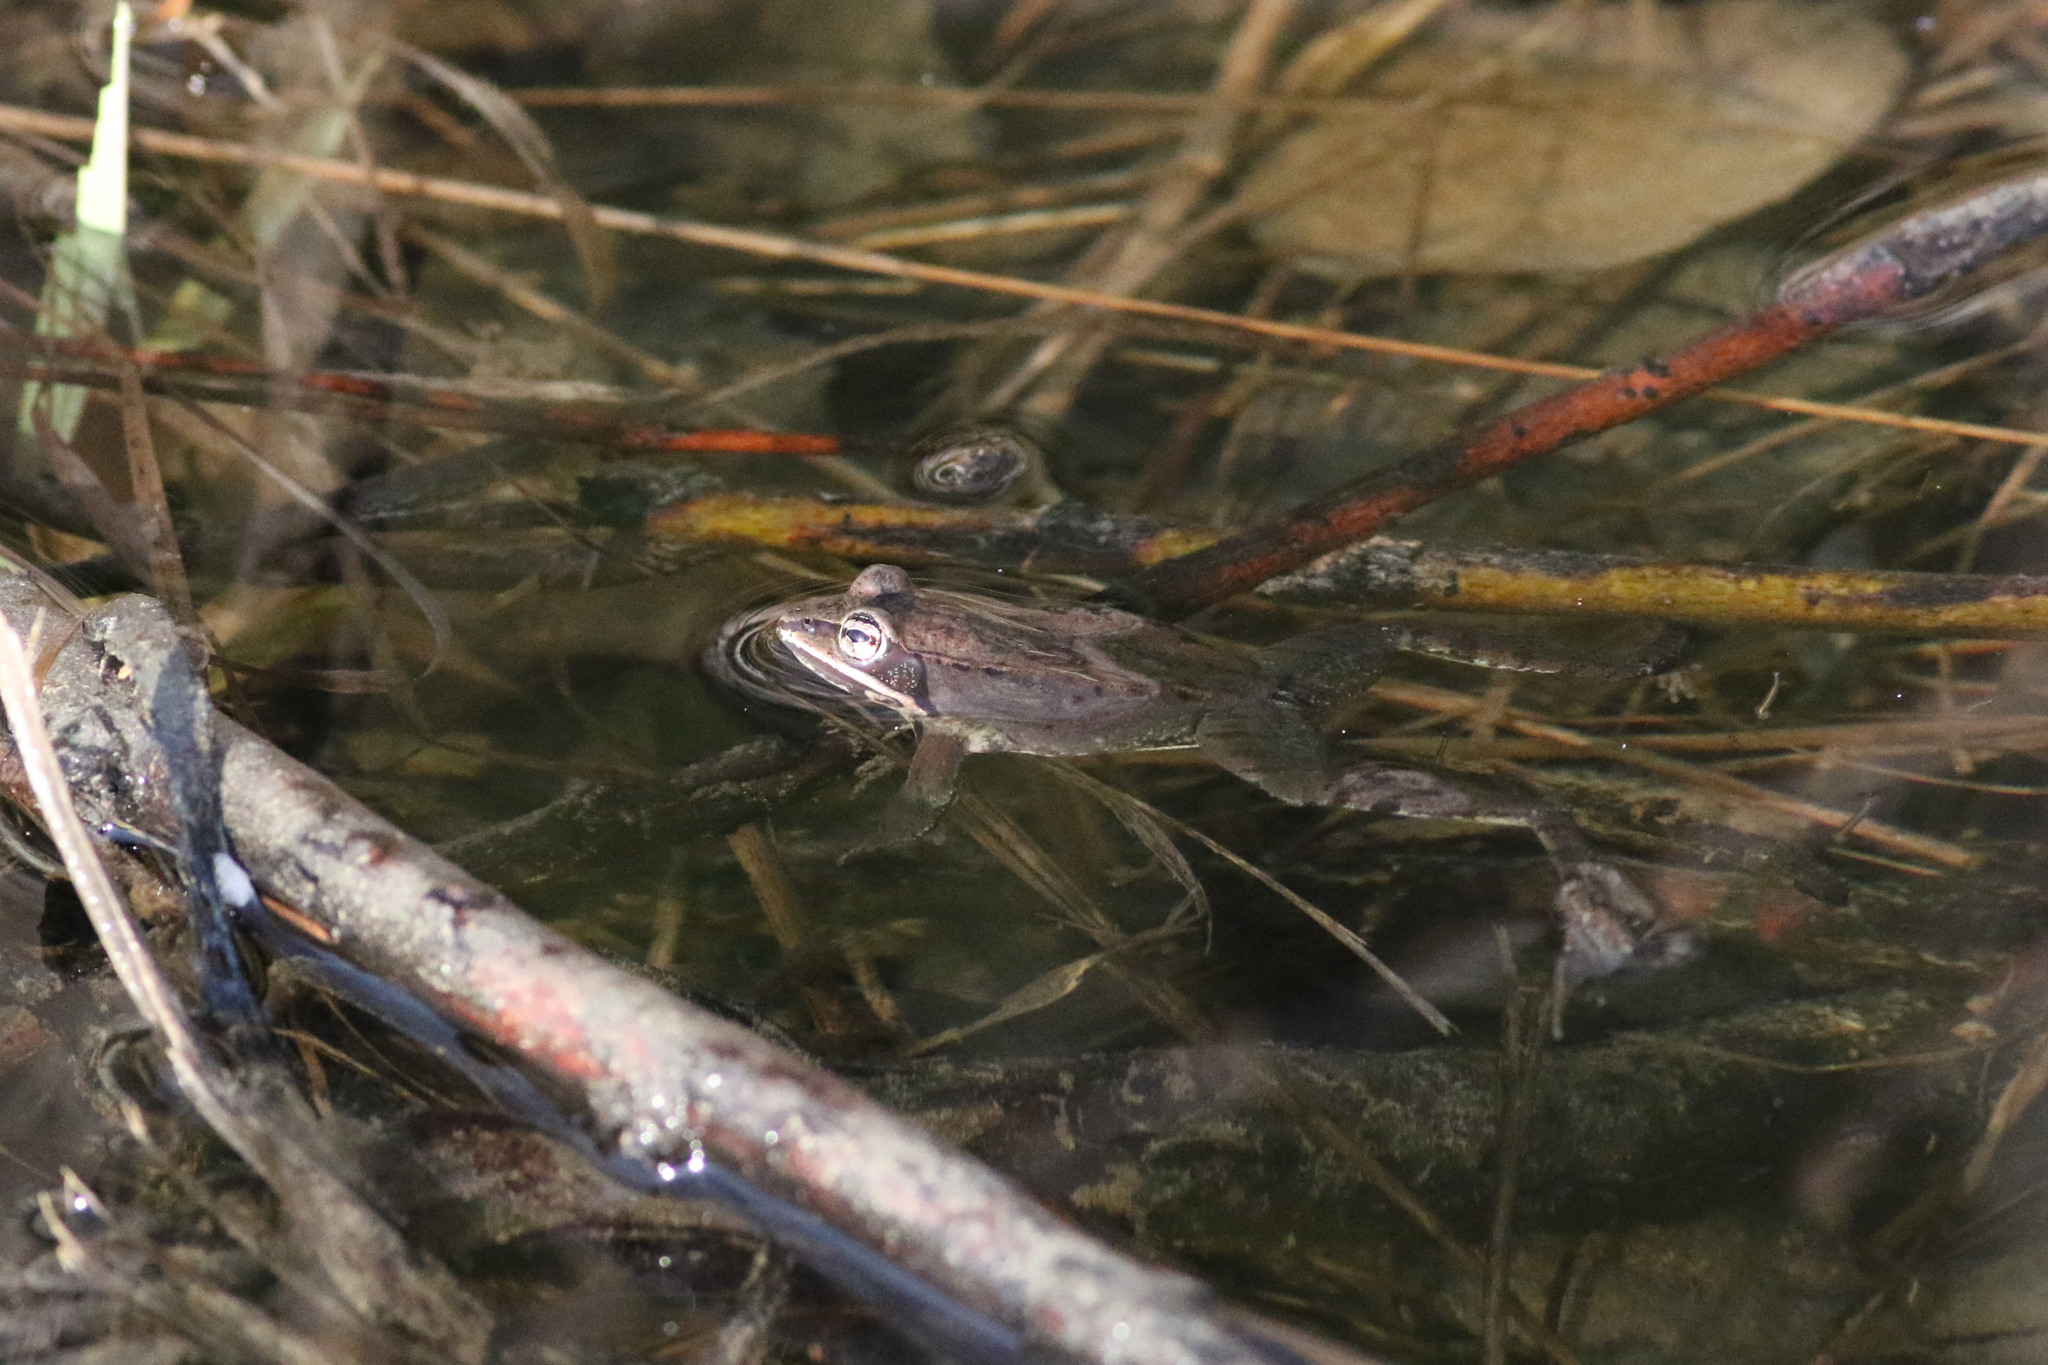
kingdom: Animalia
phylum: Chordata
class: Amphibia
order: Anura
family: Ranidae
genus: Lithobates
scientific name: Lithobates sylvaticus
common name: Wood frog
